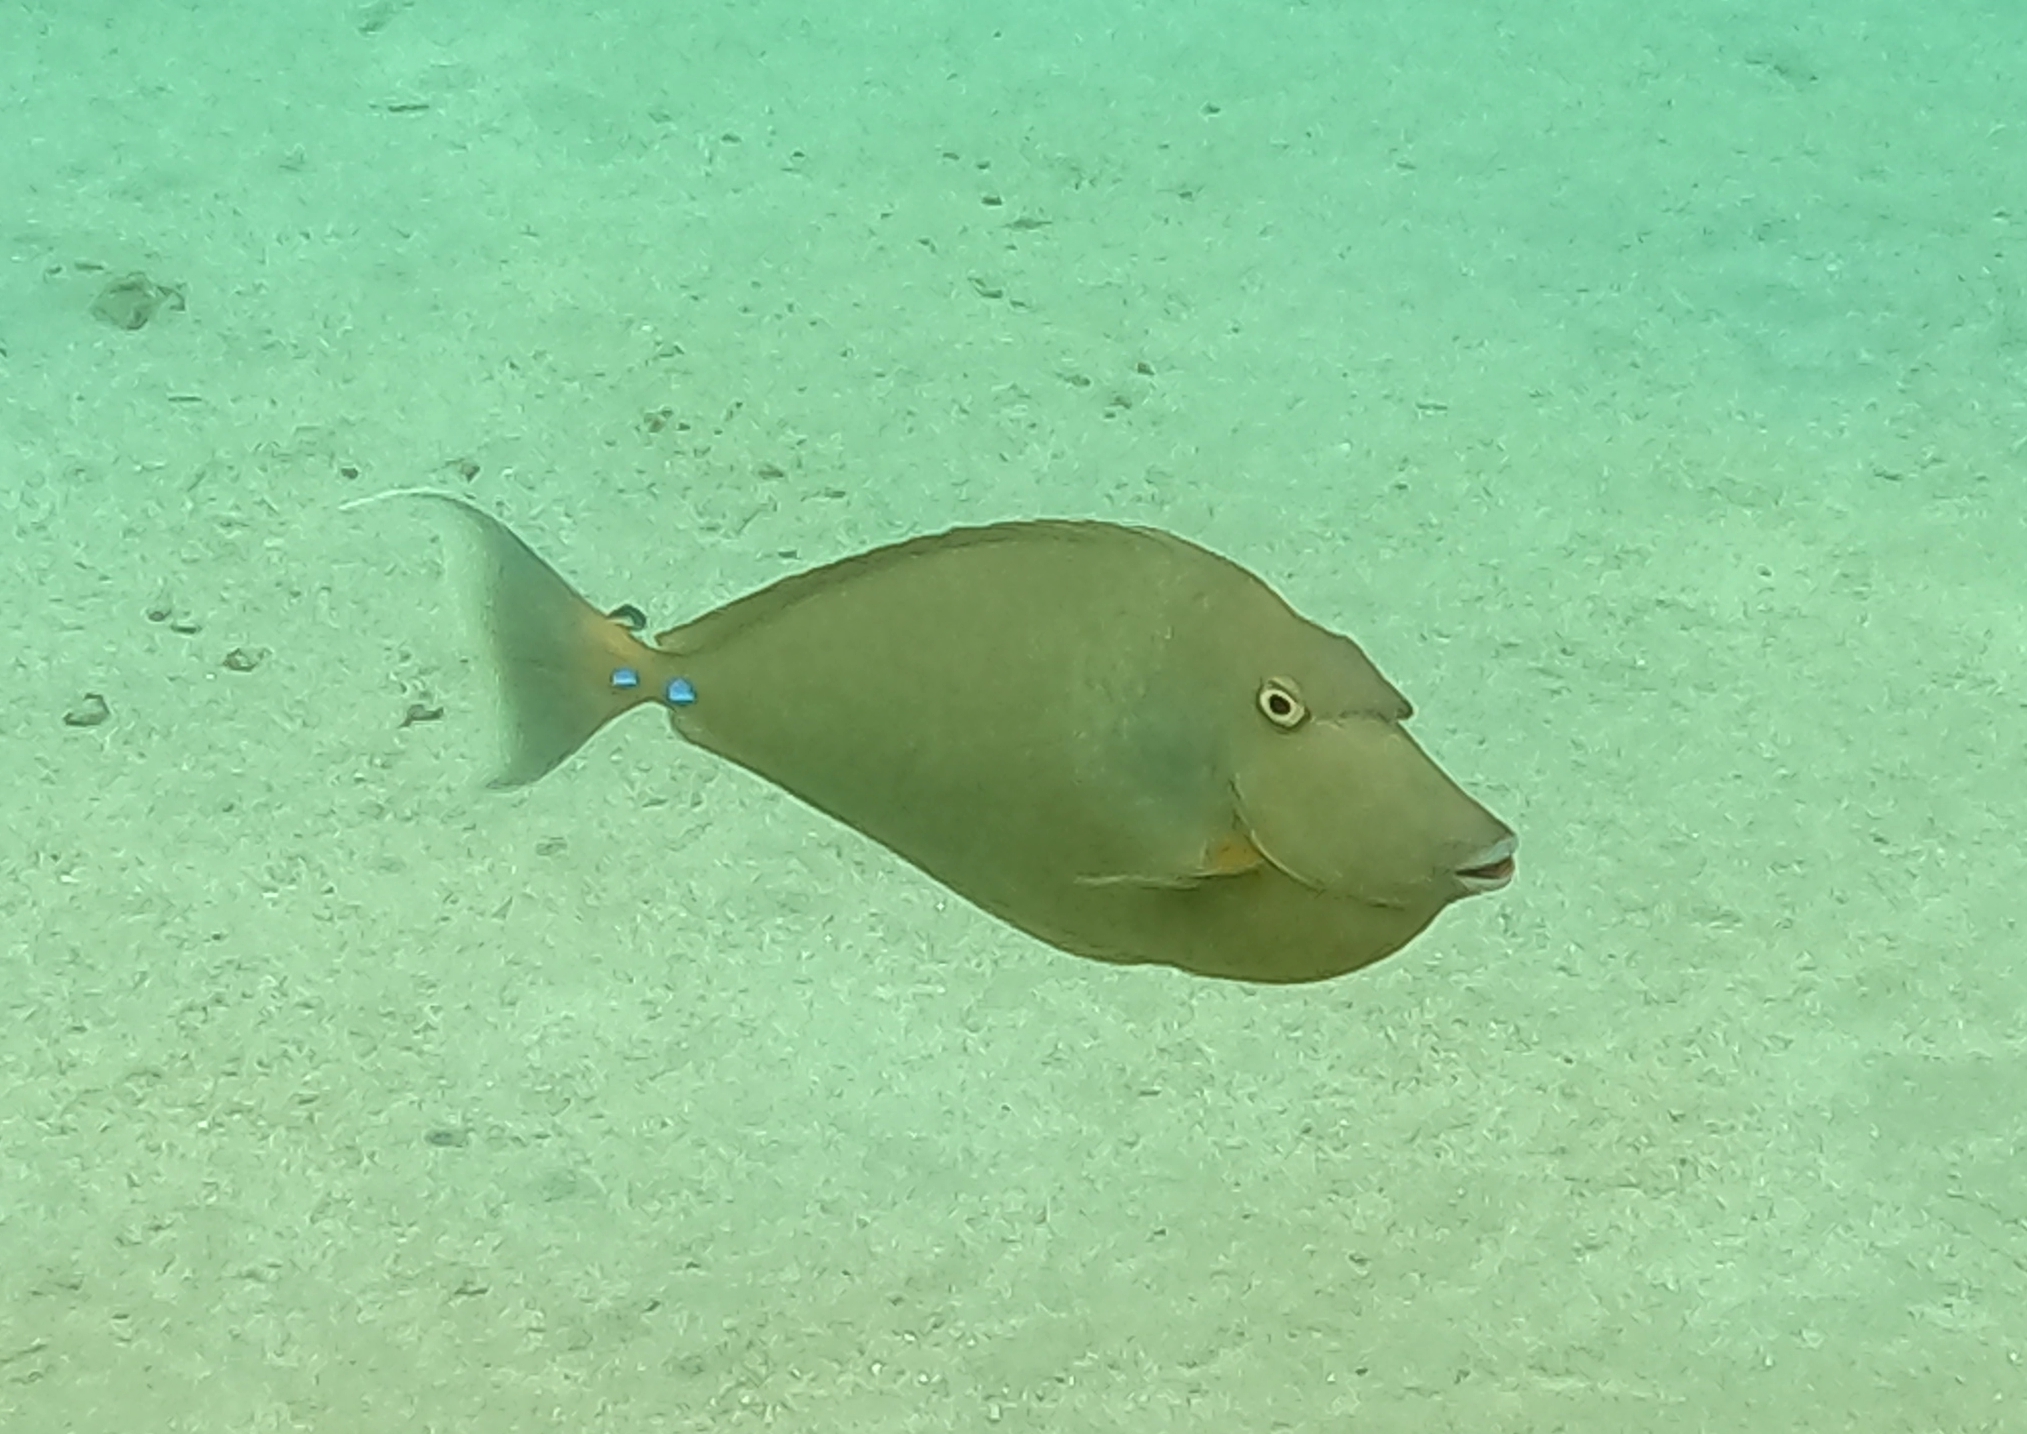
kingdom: Animalia
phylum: Chordata
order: Perciformes
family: Acanthuridae
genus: Naso
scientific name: Naso unicornis
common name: Bluespine unicornfish
